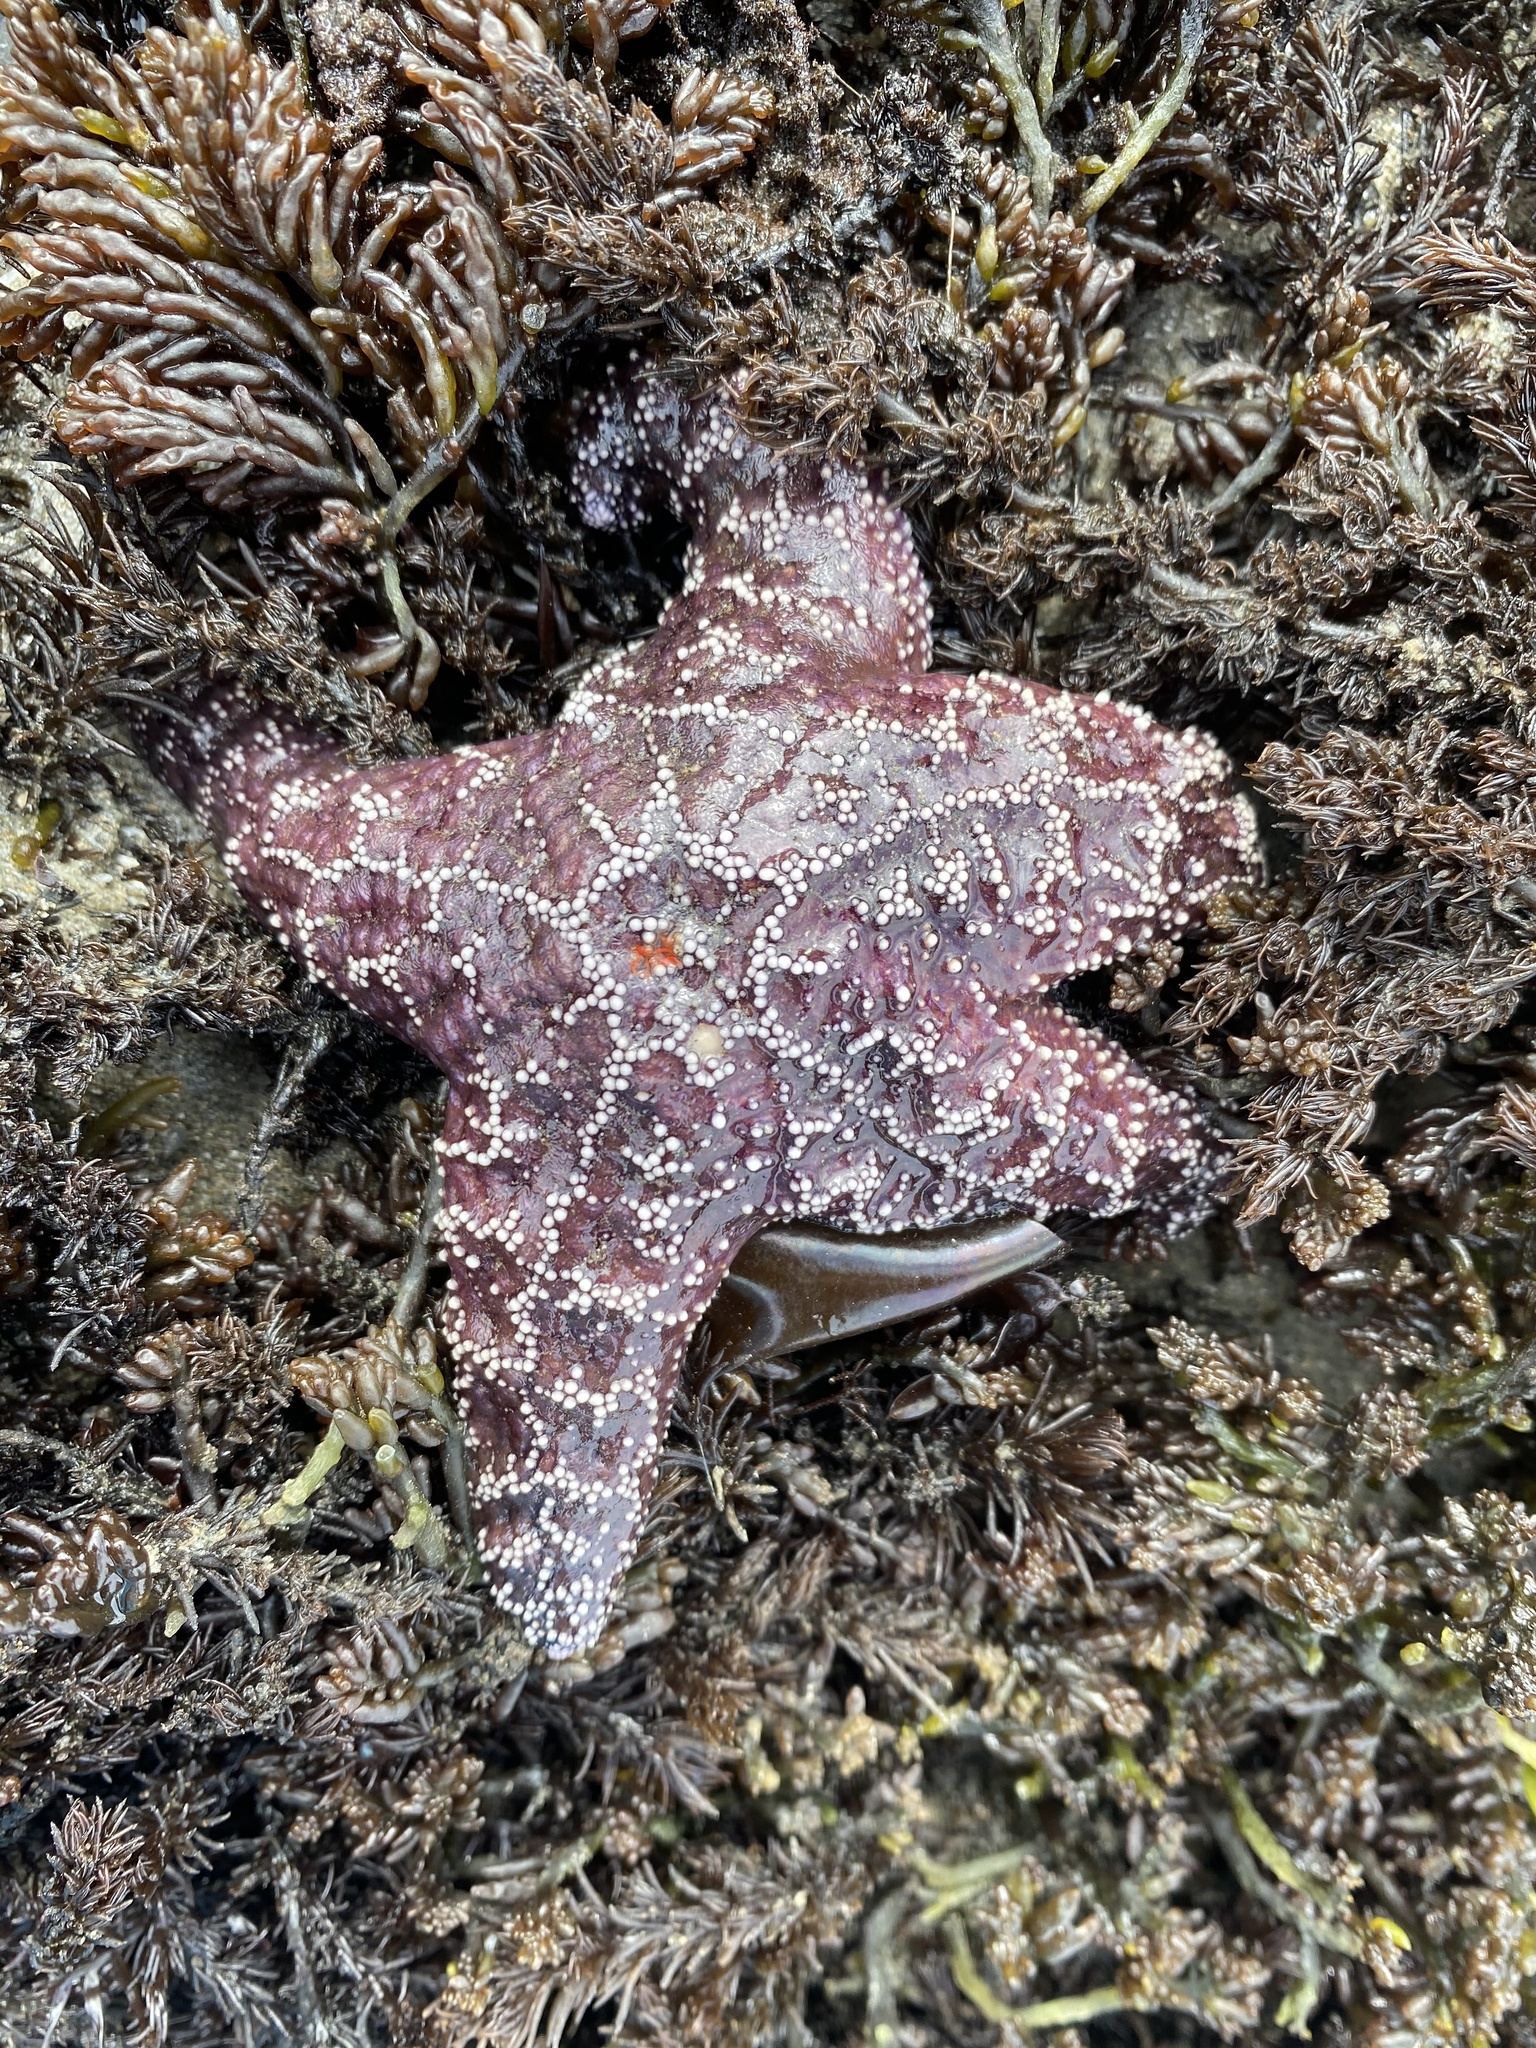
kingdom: Animalia
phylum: Echinodermata
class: Asteroidea
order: Forcipulatida
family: Asteriidae
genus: Pisaster
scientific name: Pisaster ochraceus
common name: Ochre stars
